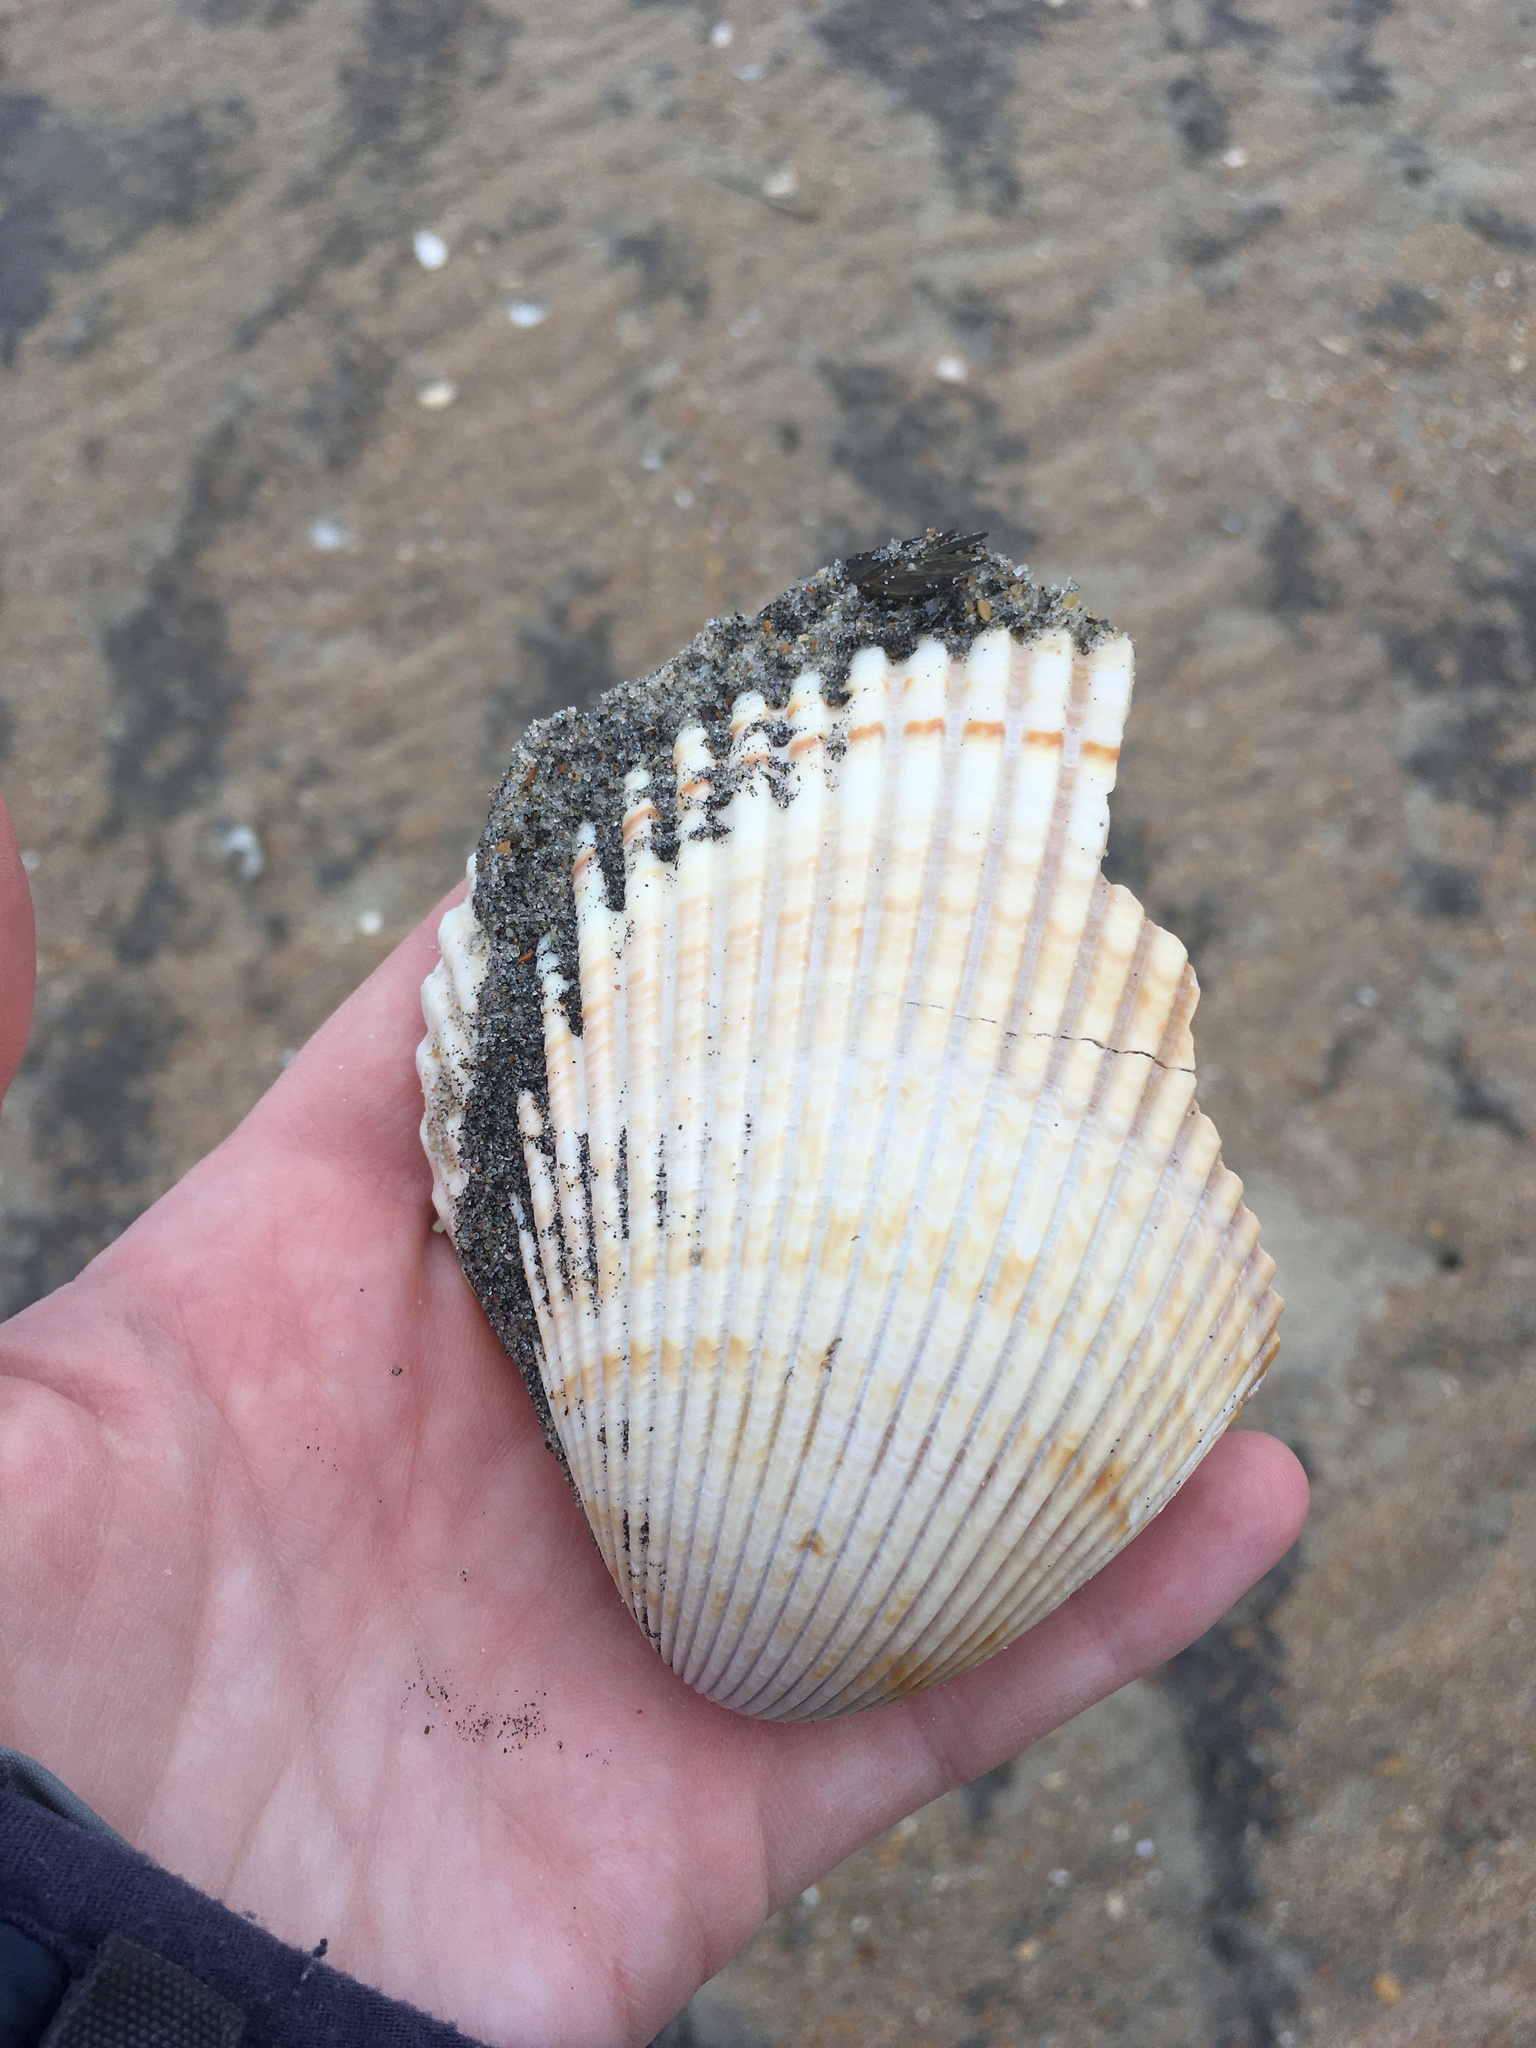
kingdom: Animalia
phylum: Mollusca
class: Bivalvia
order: Cardiida
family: Cardiidae
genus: Dinocardium
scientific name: Dinocardium robustum
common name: Atlantic giant cockle
